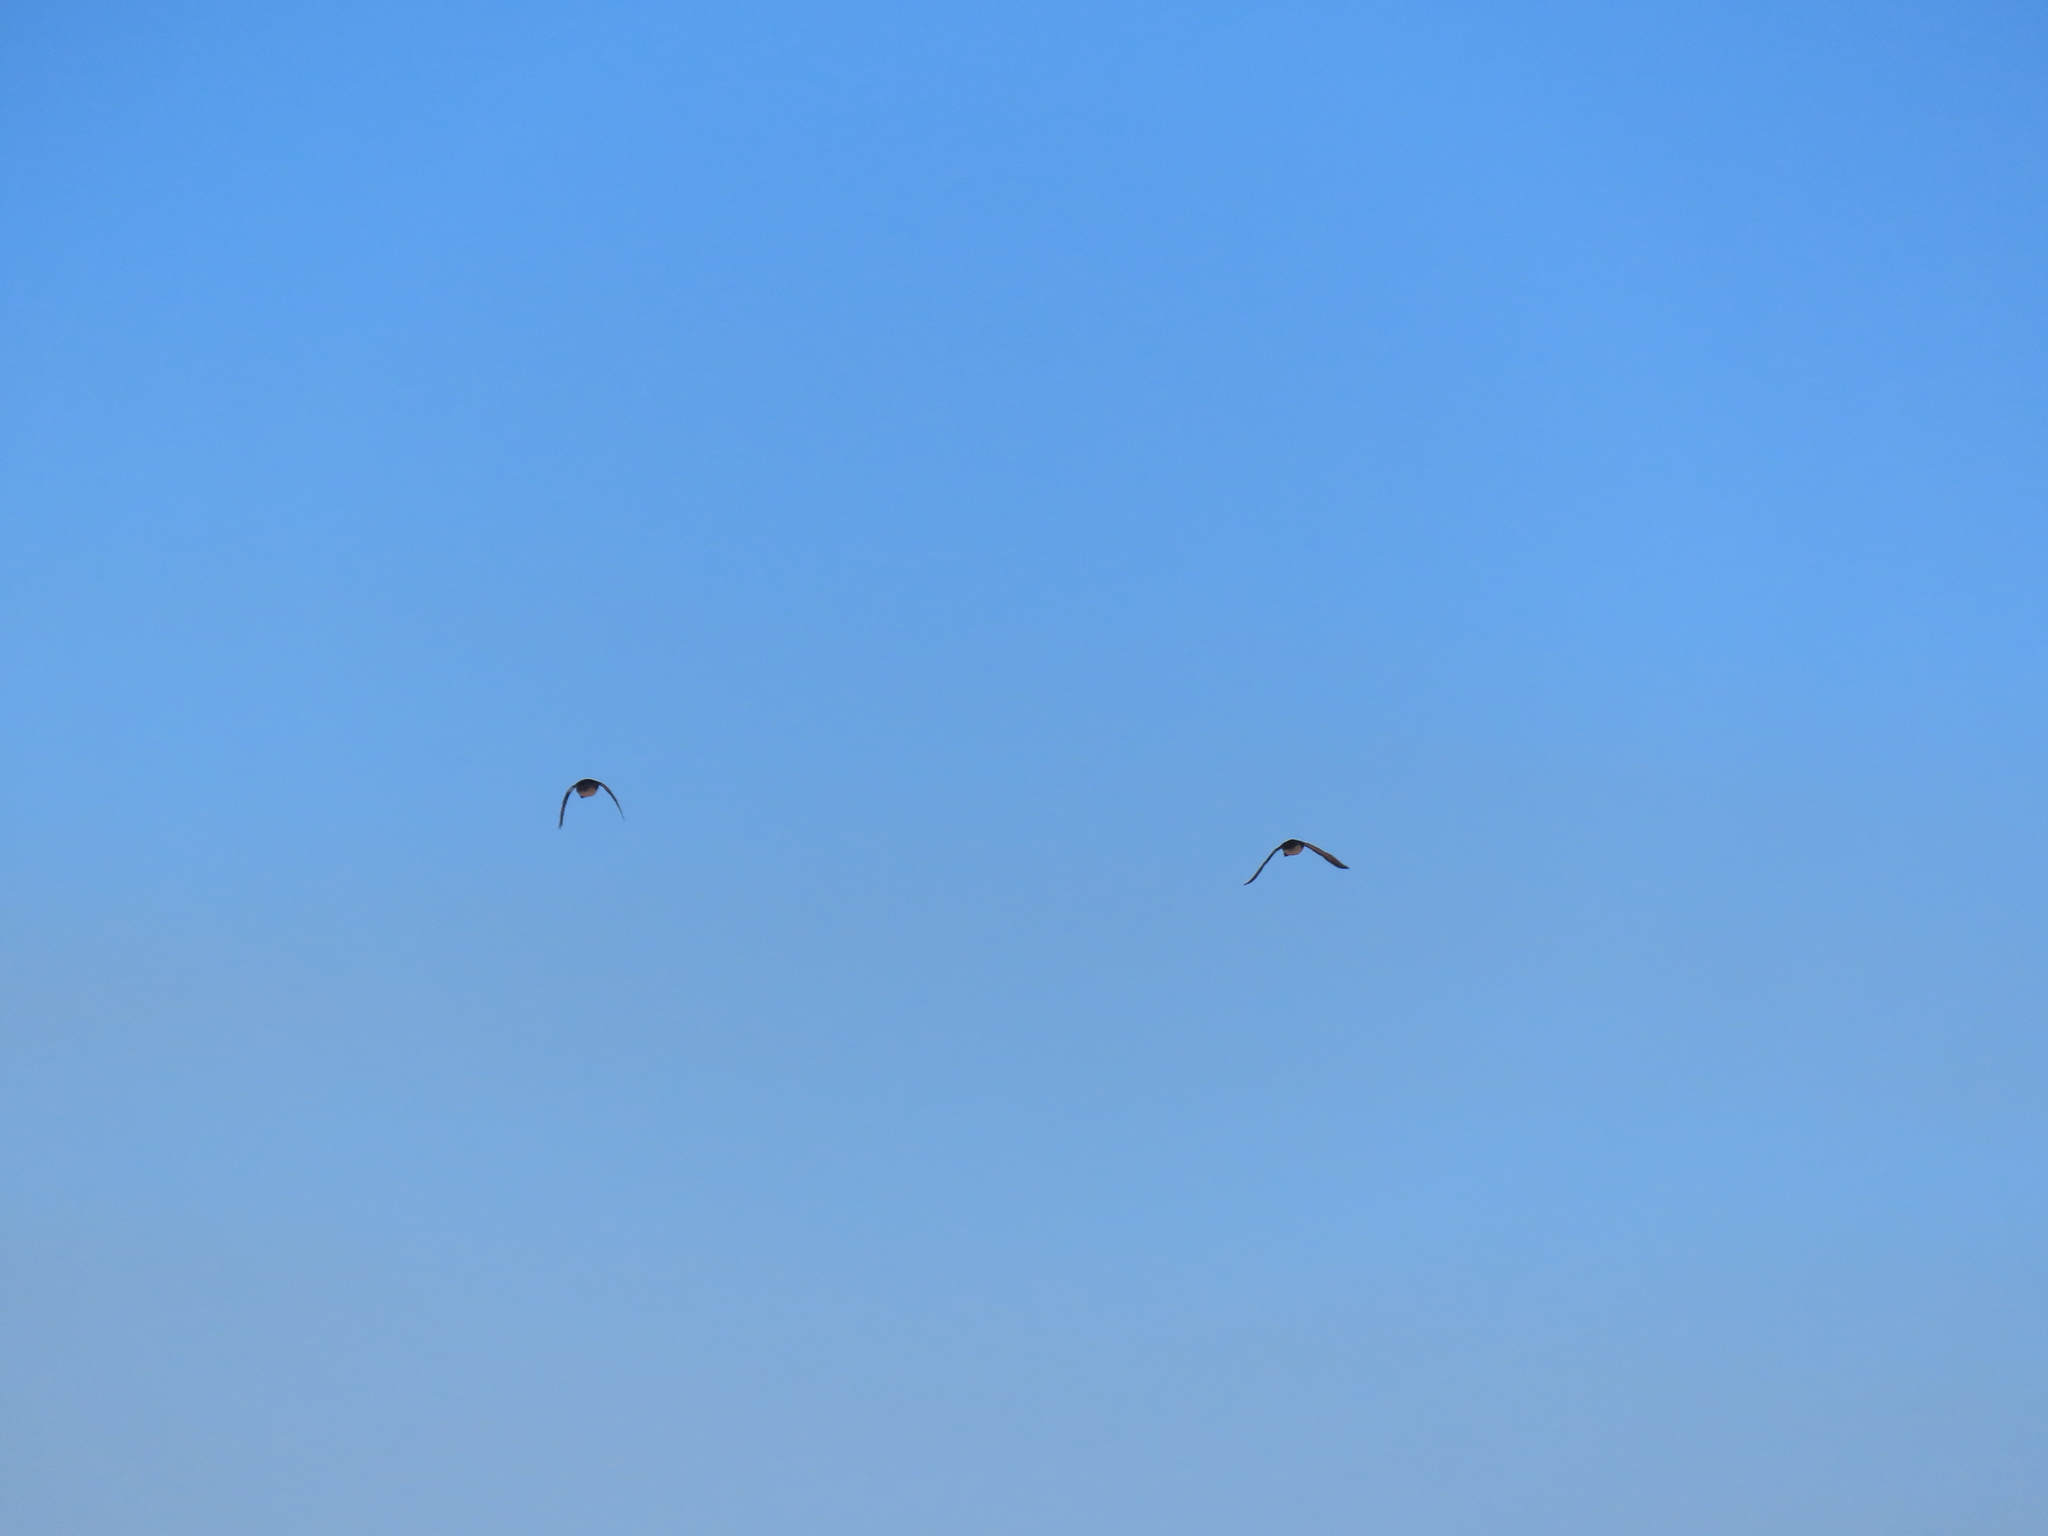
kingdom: Animalia
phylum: Chordata
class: Aves
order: Anseriformes
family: Anatidae
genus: Lophodytes
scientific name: Lophodytes cucullatus
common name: Hooded merganser
